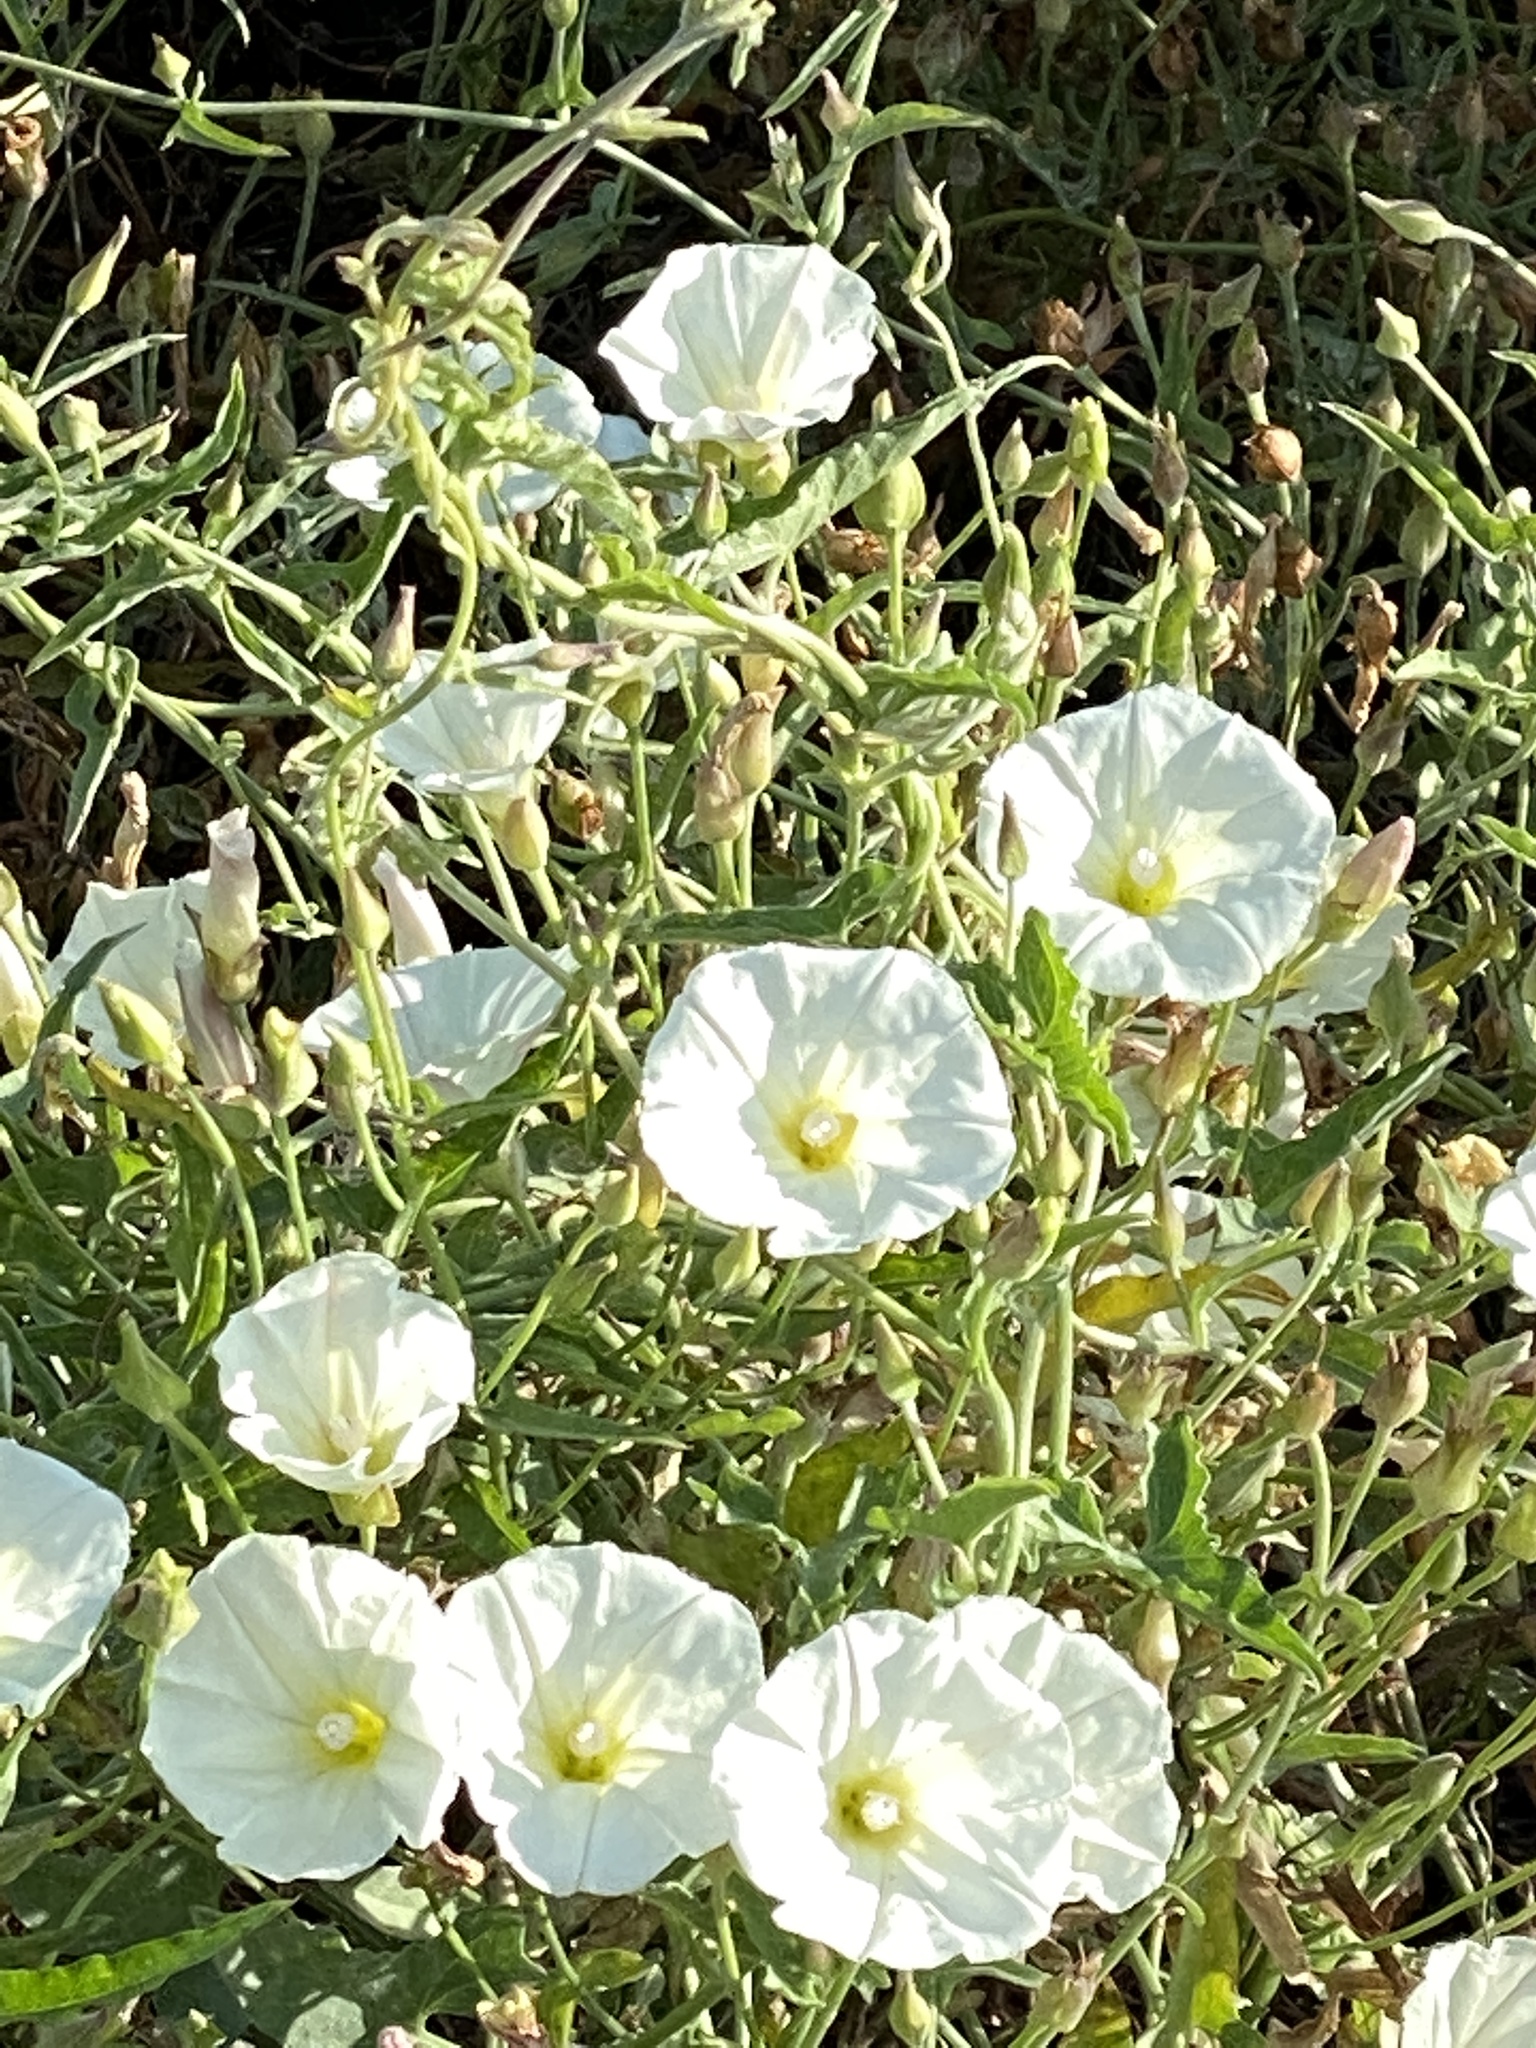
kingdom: Plantae
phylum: Tracheophyta
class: Magnoliopsida
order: Solanales
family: Convolvulaceae
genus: Calystegia
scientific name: Calystegia macrostegia
